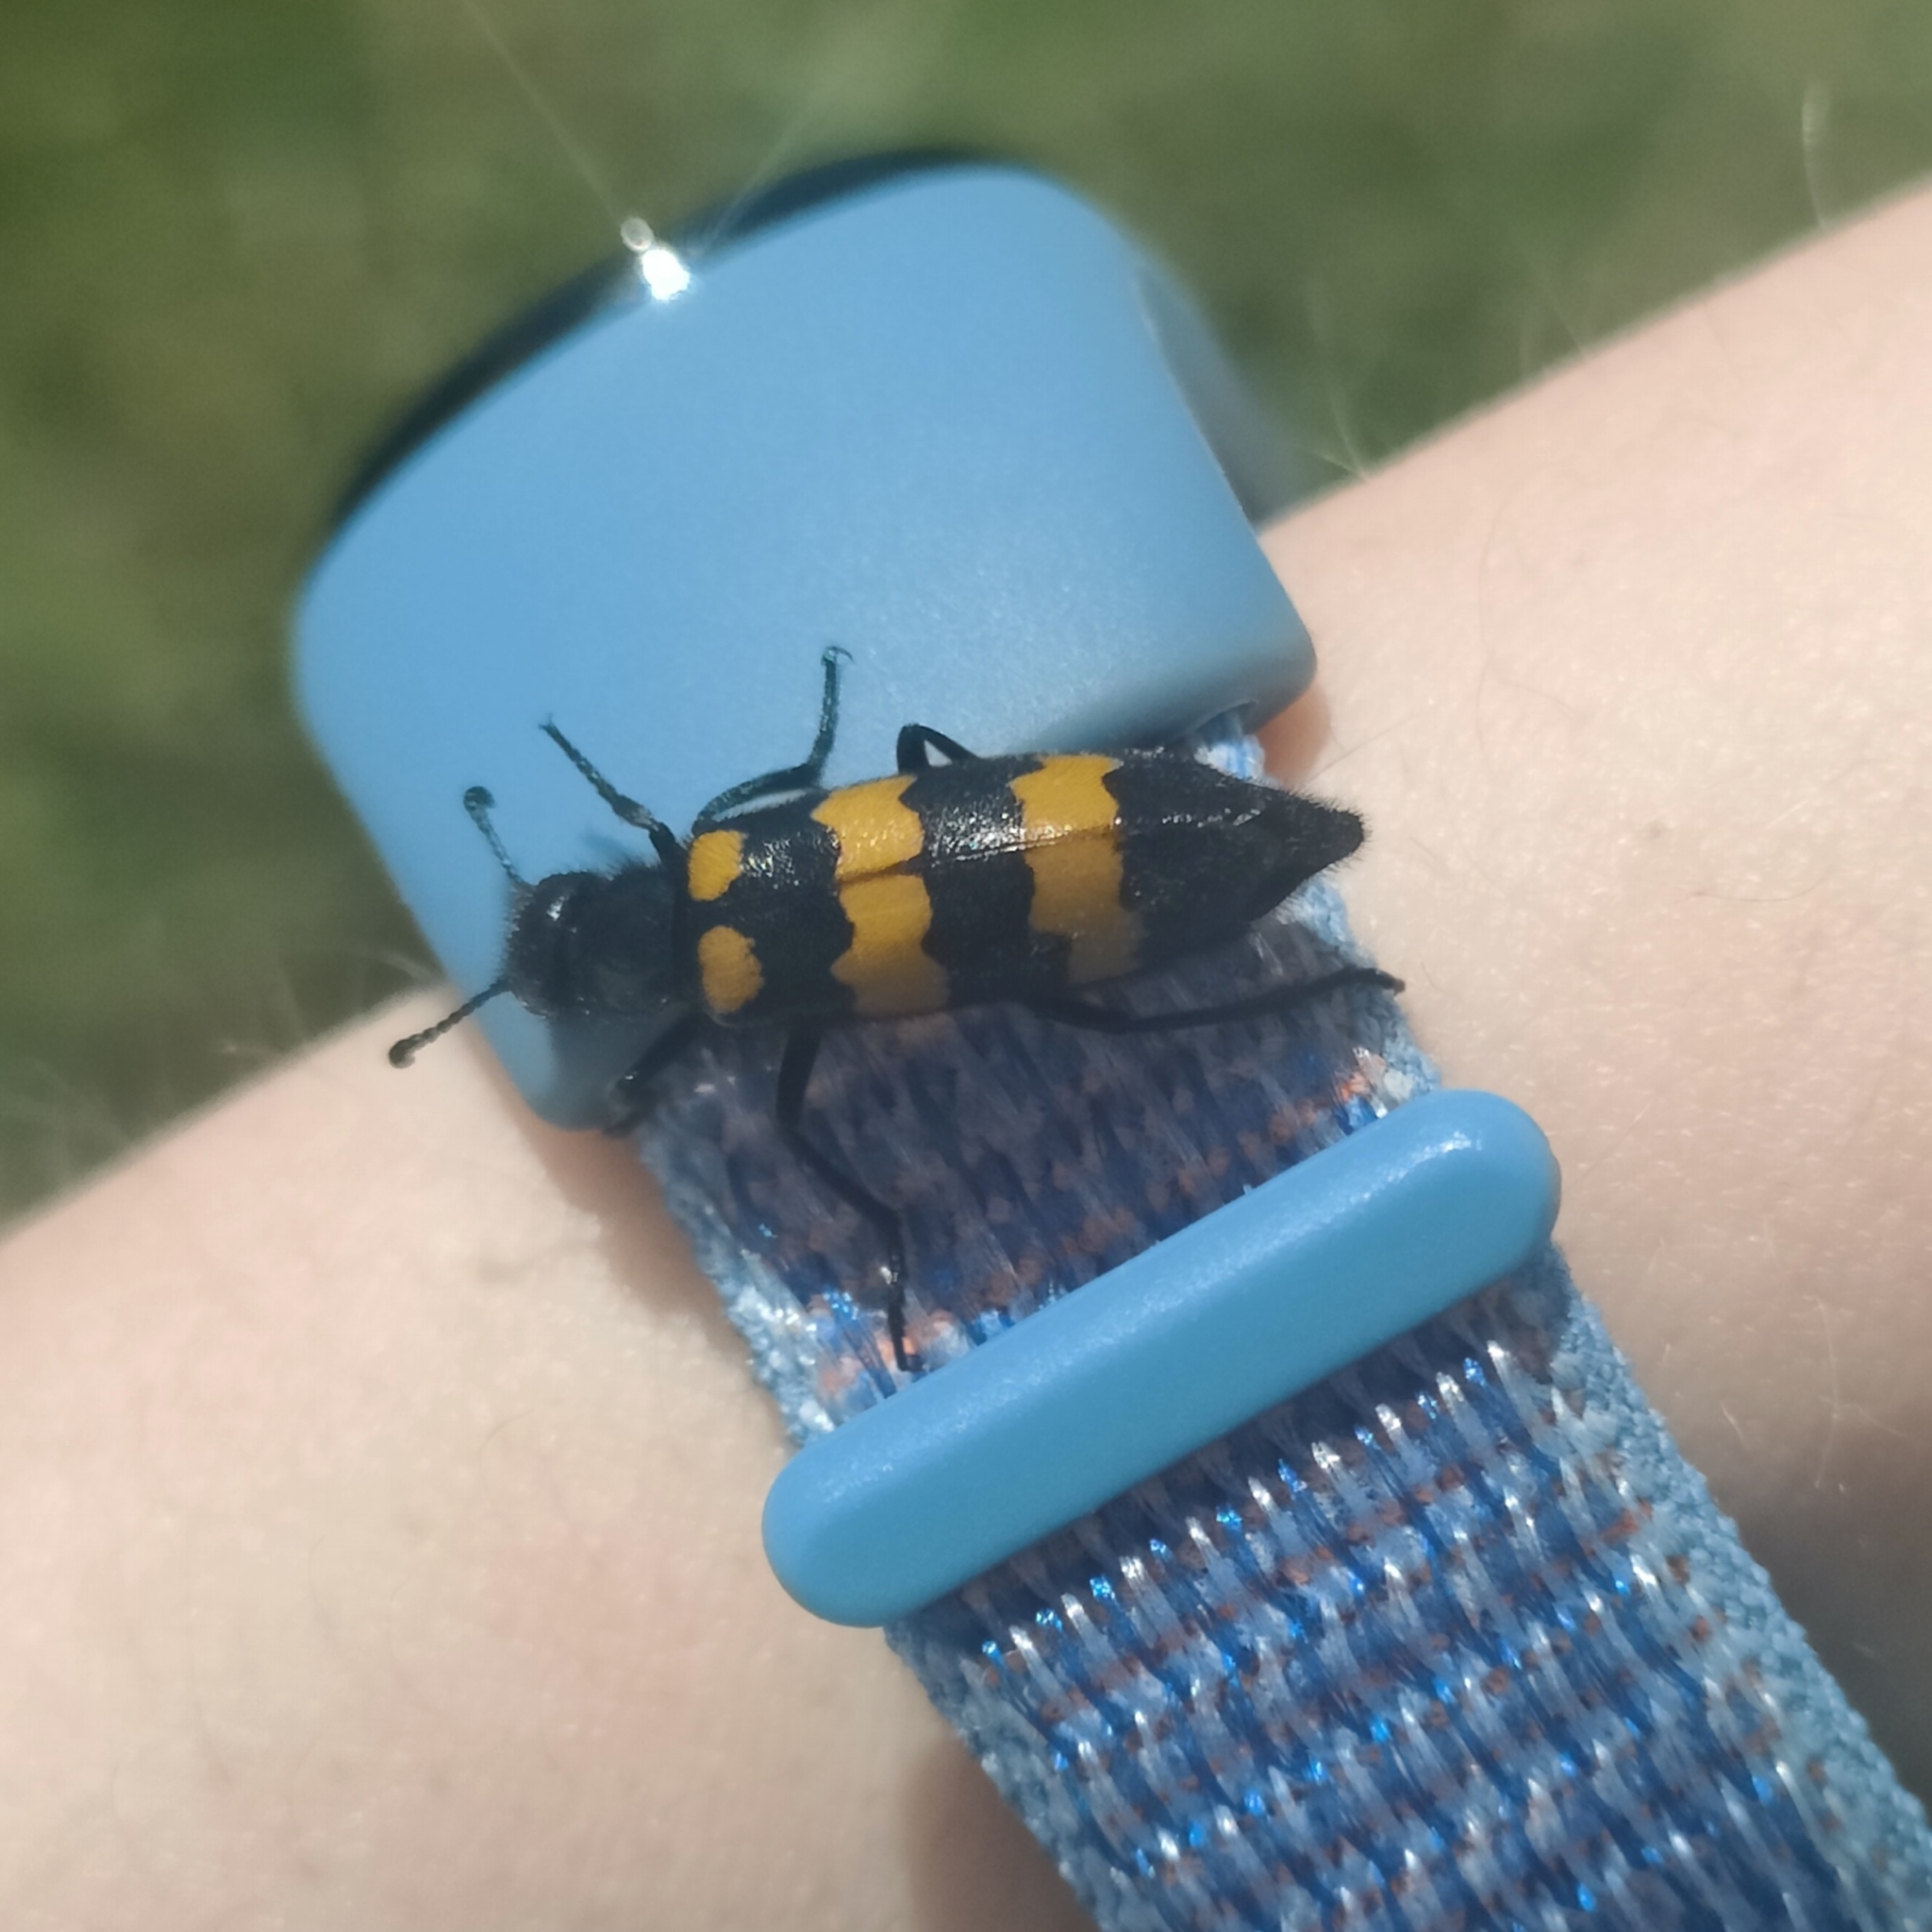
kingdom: Animalia
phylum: Arthropoda
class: Insecta
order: Coleoptera
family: Meloidae
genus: Mylabris
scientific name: Mylabris variabilis
